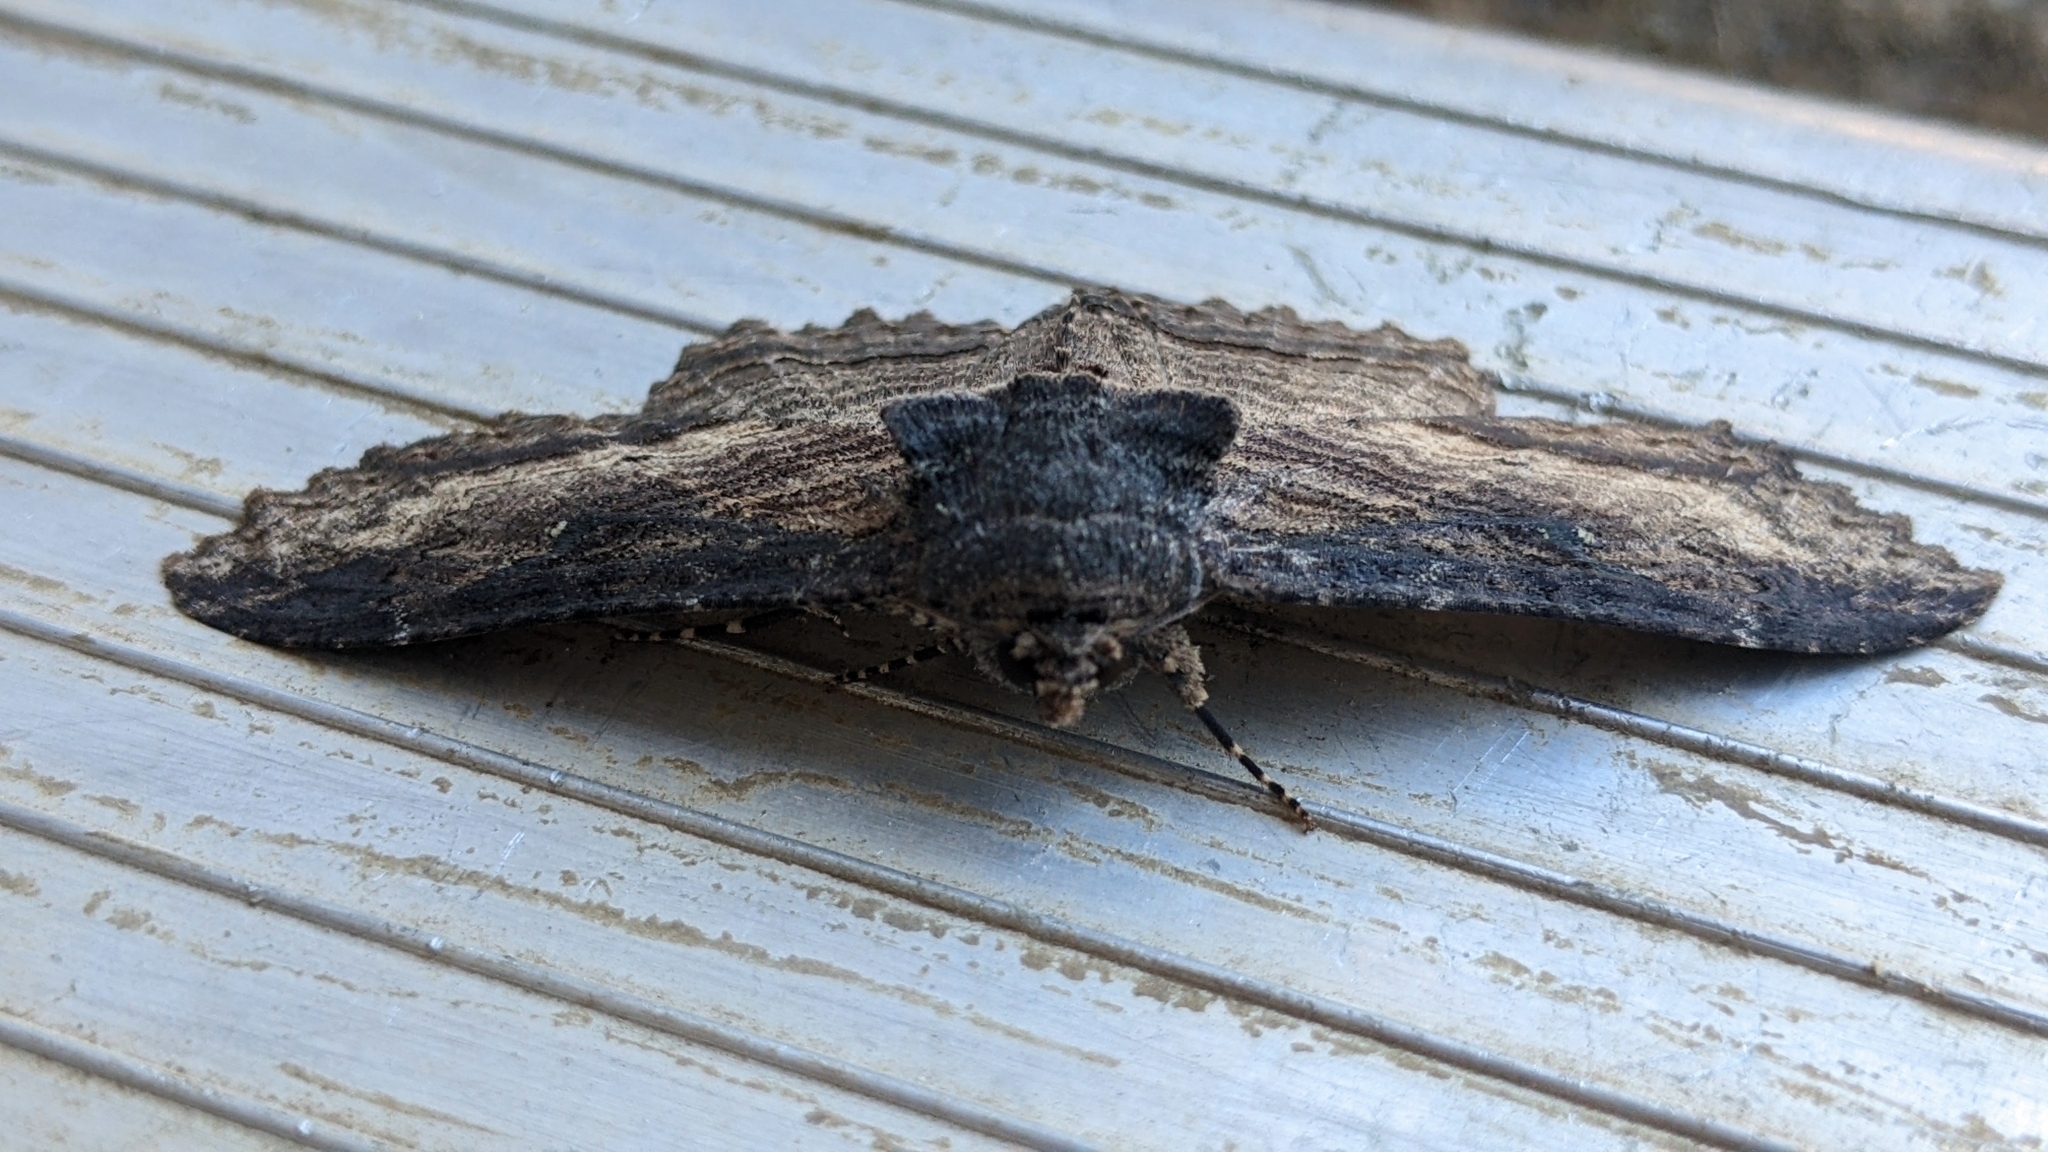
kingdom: Animalia
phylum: Arthropoda
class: Insecta
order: Lepidoptera
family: Erebidae
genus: Zale
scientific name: Zale lunata
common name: Lunate zale moth
